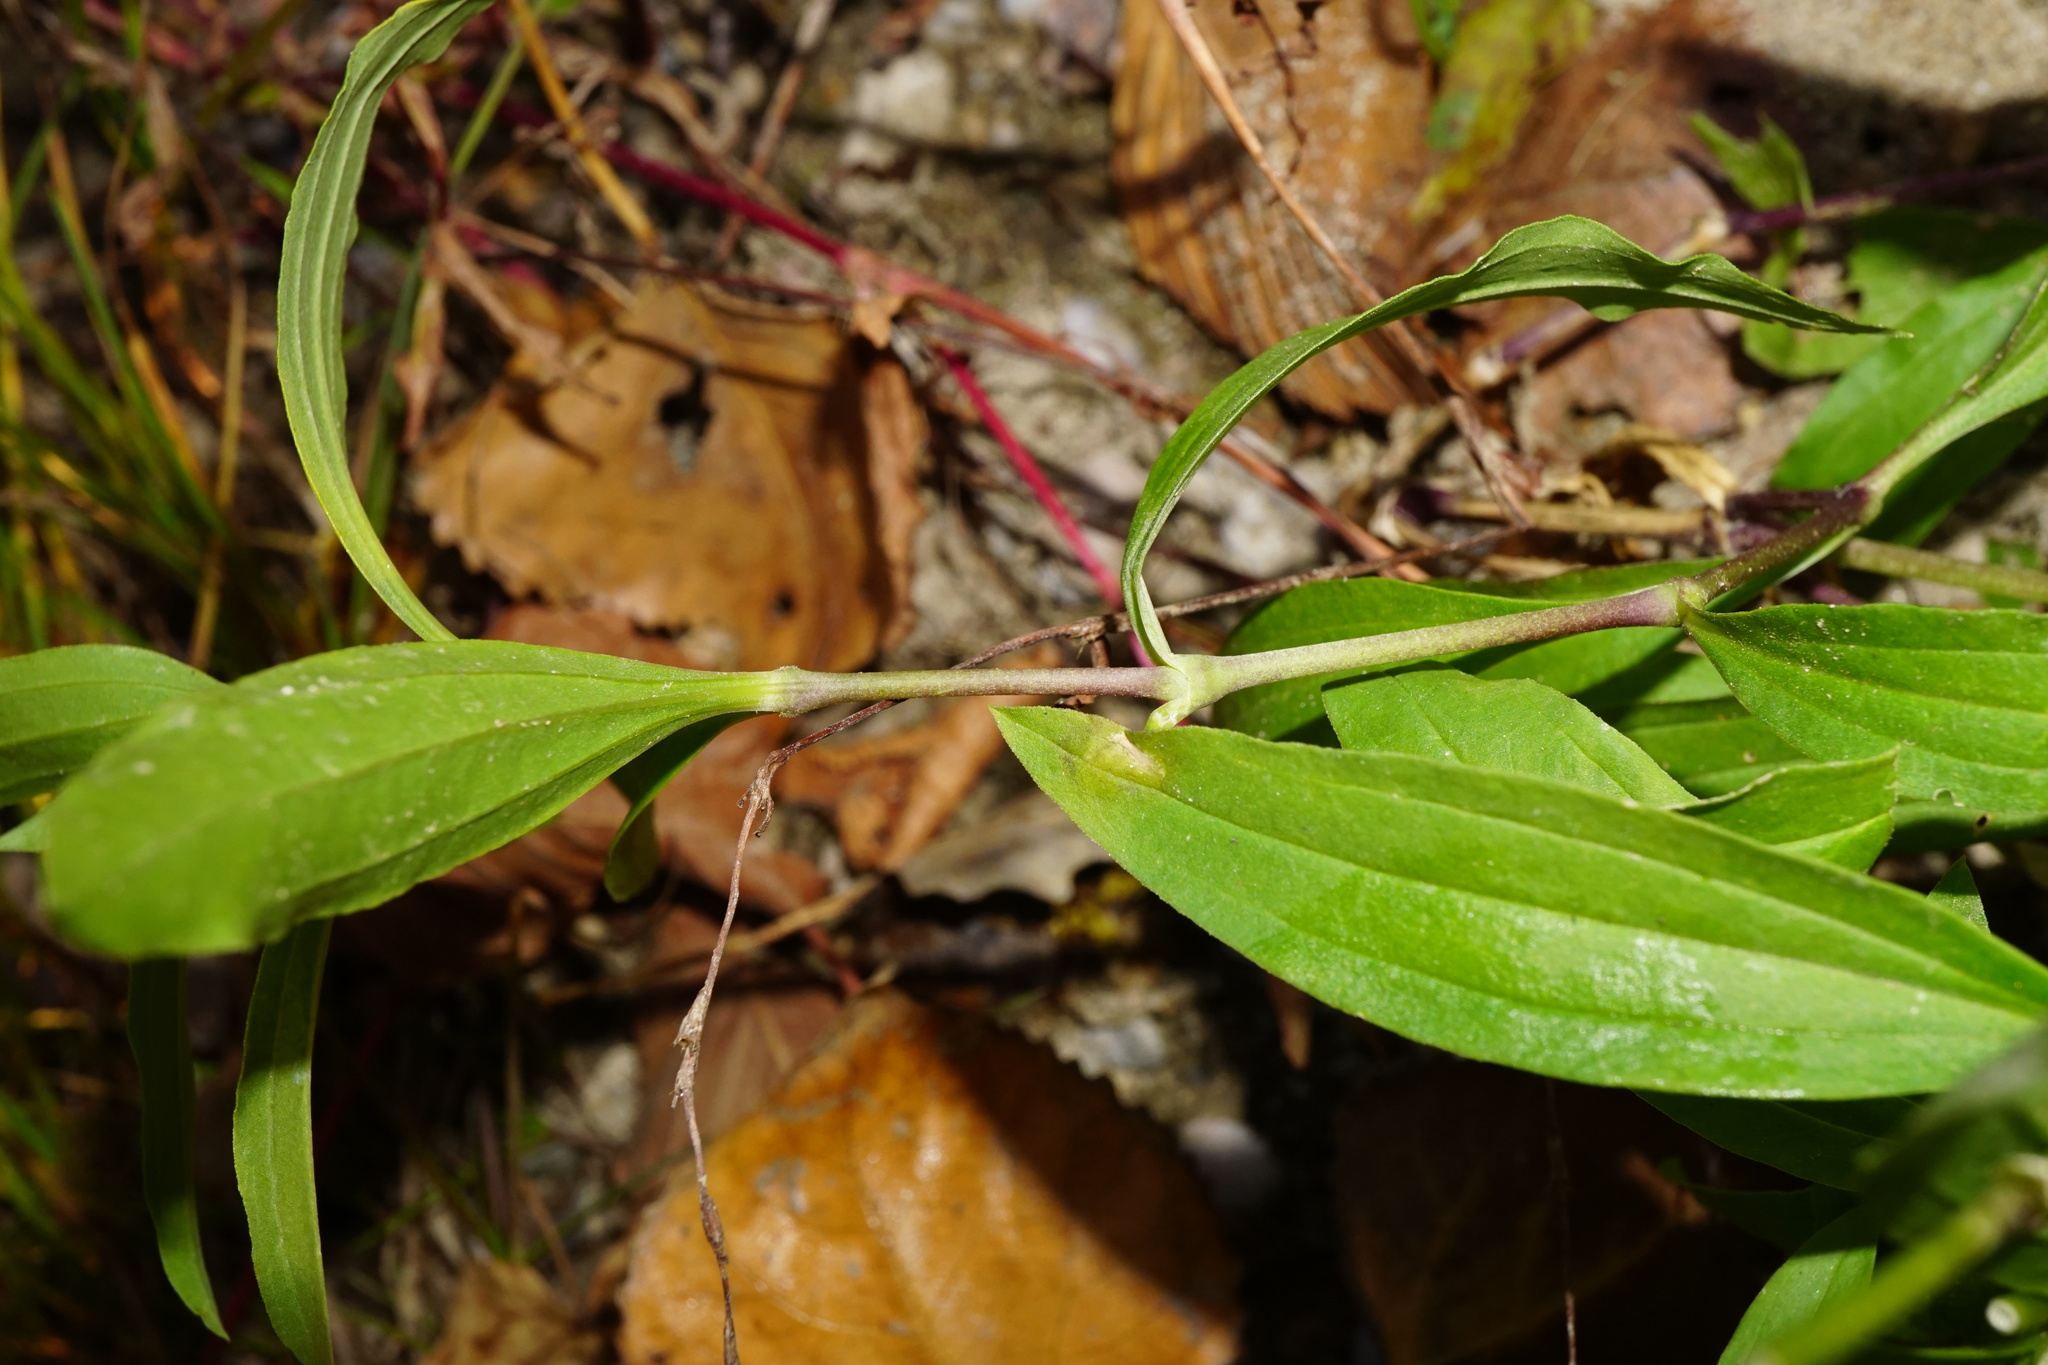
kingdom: Plantae
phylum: Tracheophyta
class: Magnoliopsida
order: Caryophyllales
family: Caryophyllaceae
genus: Saponaria
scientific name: Saponaria officinalis
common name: Soapwort
